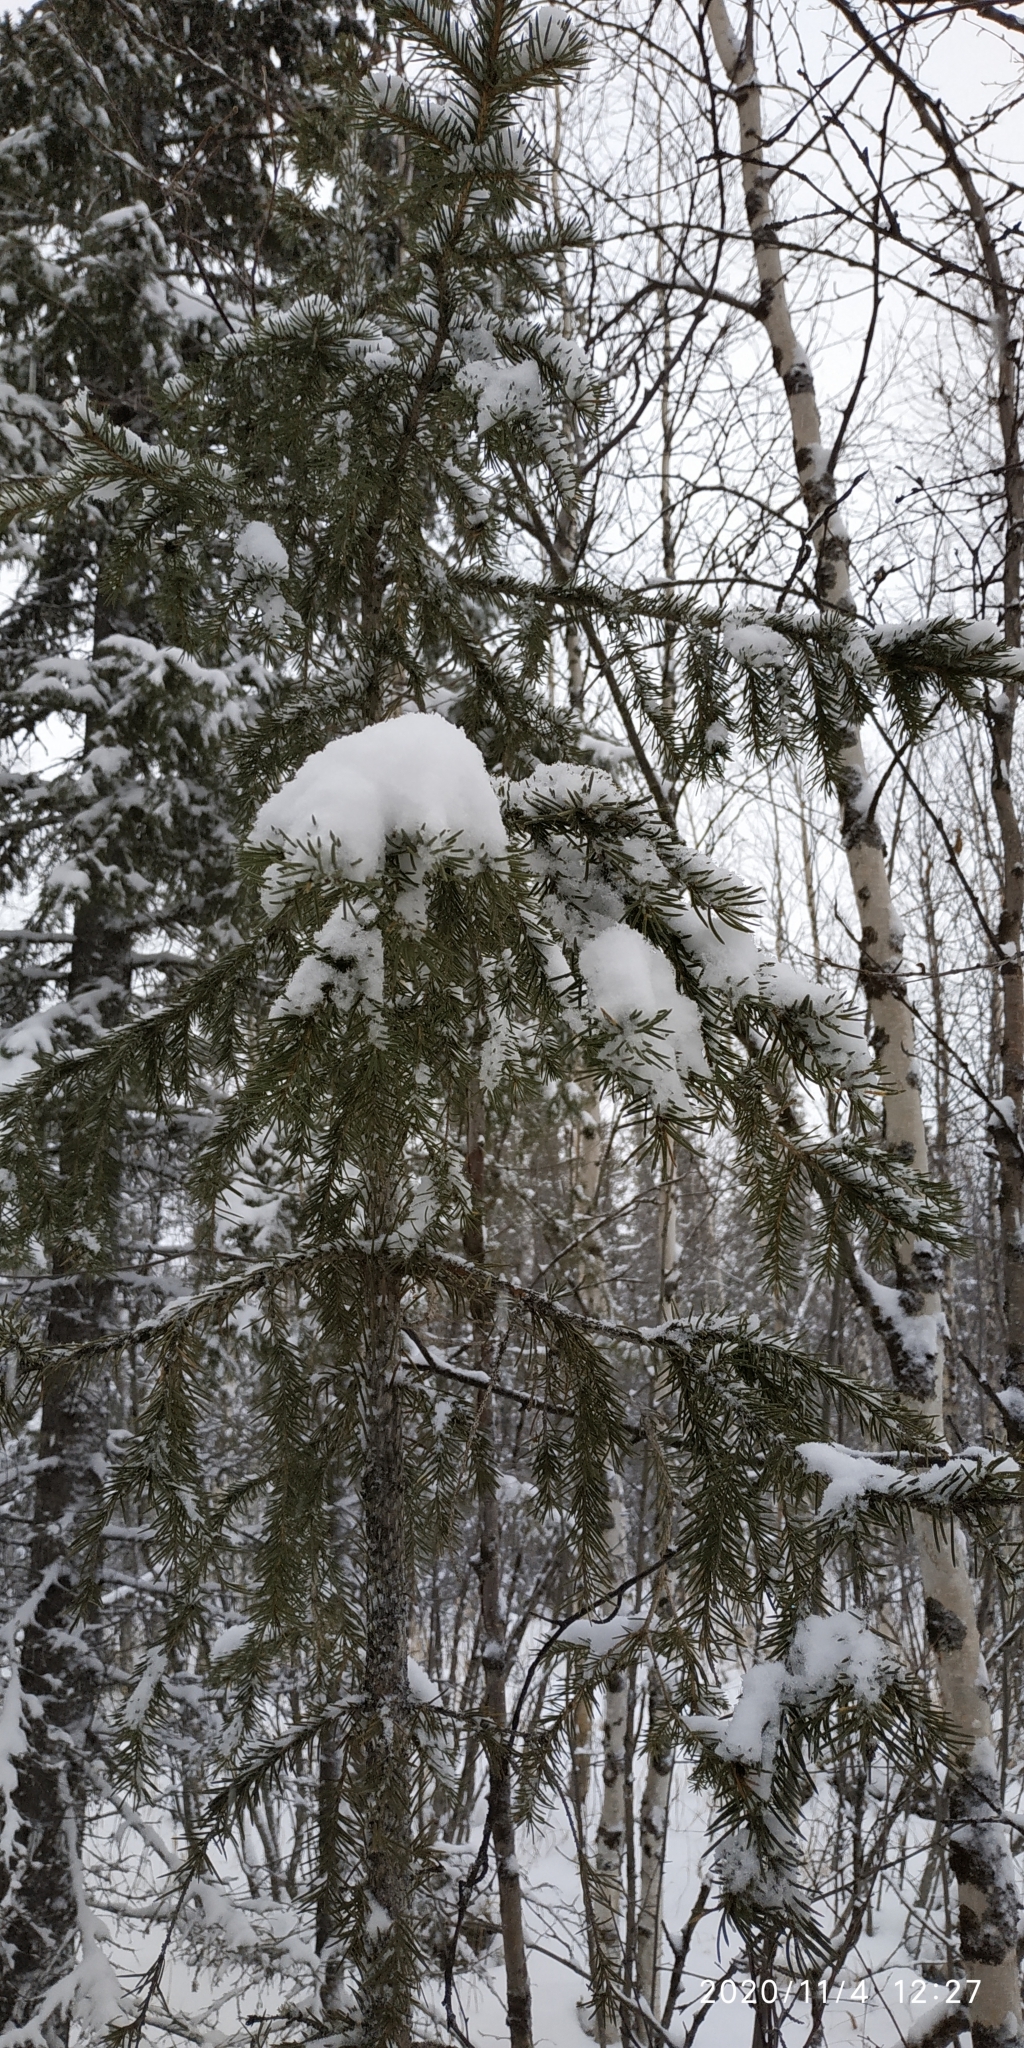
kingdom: Plantae
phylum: Tracheophyta
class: Pinopsida
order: Pinales
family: Pinaceae
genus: Picea
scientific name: Picea obovata
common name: Siberian spruce
